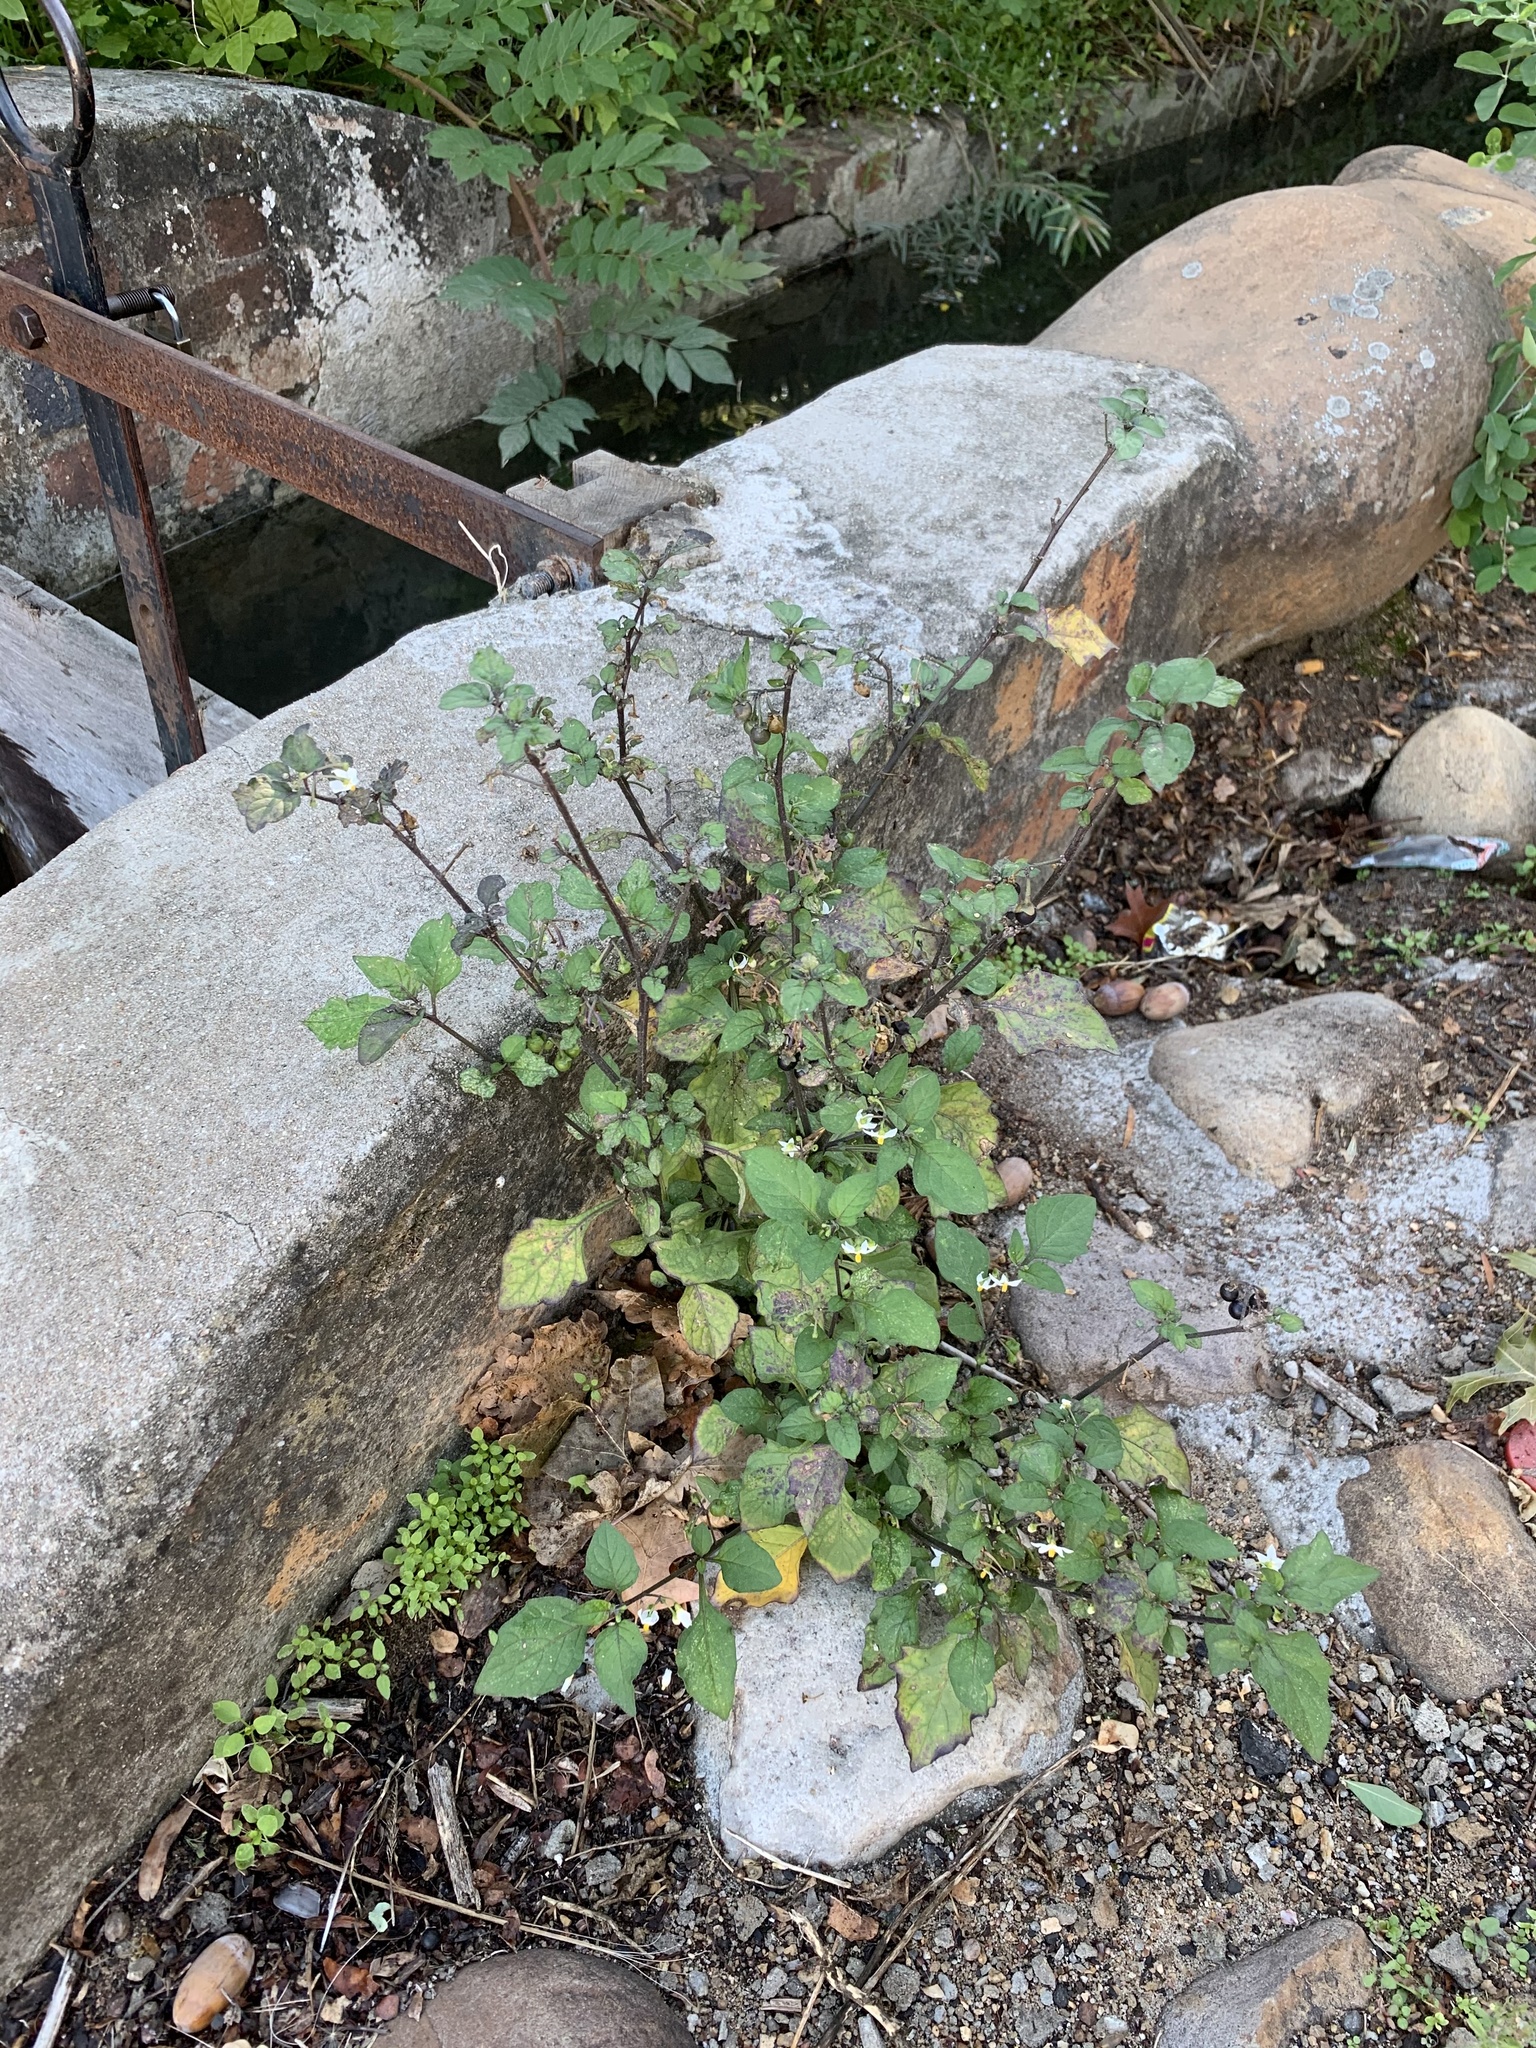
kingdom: Plantae
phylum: Tracheophyta
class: Magnoliopsida
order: Solanales
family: Solanaceae
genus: Solanum
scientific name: Solanum nigrum
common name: Black nightshade
